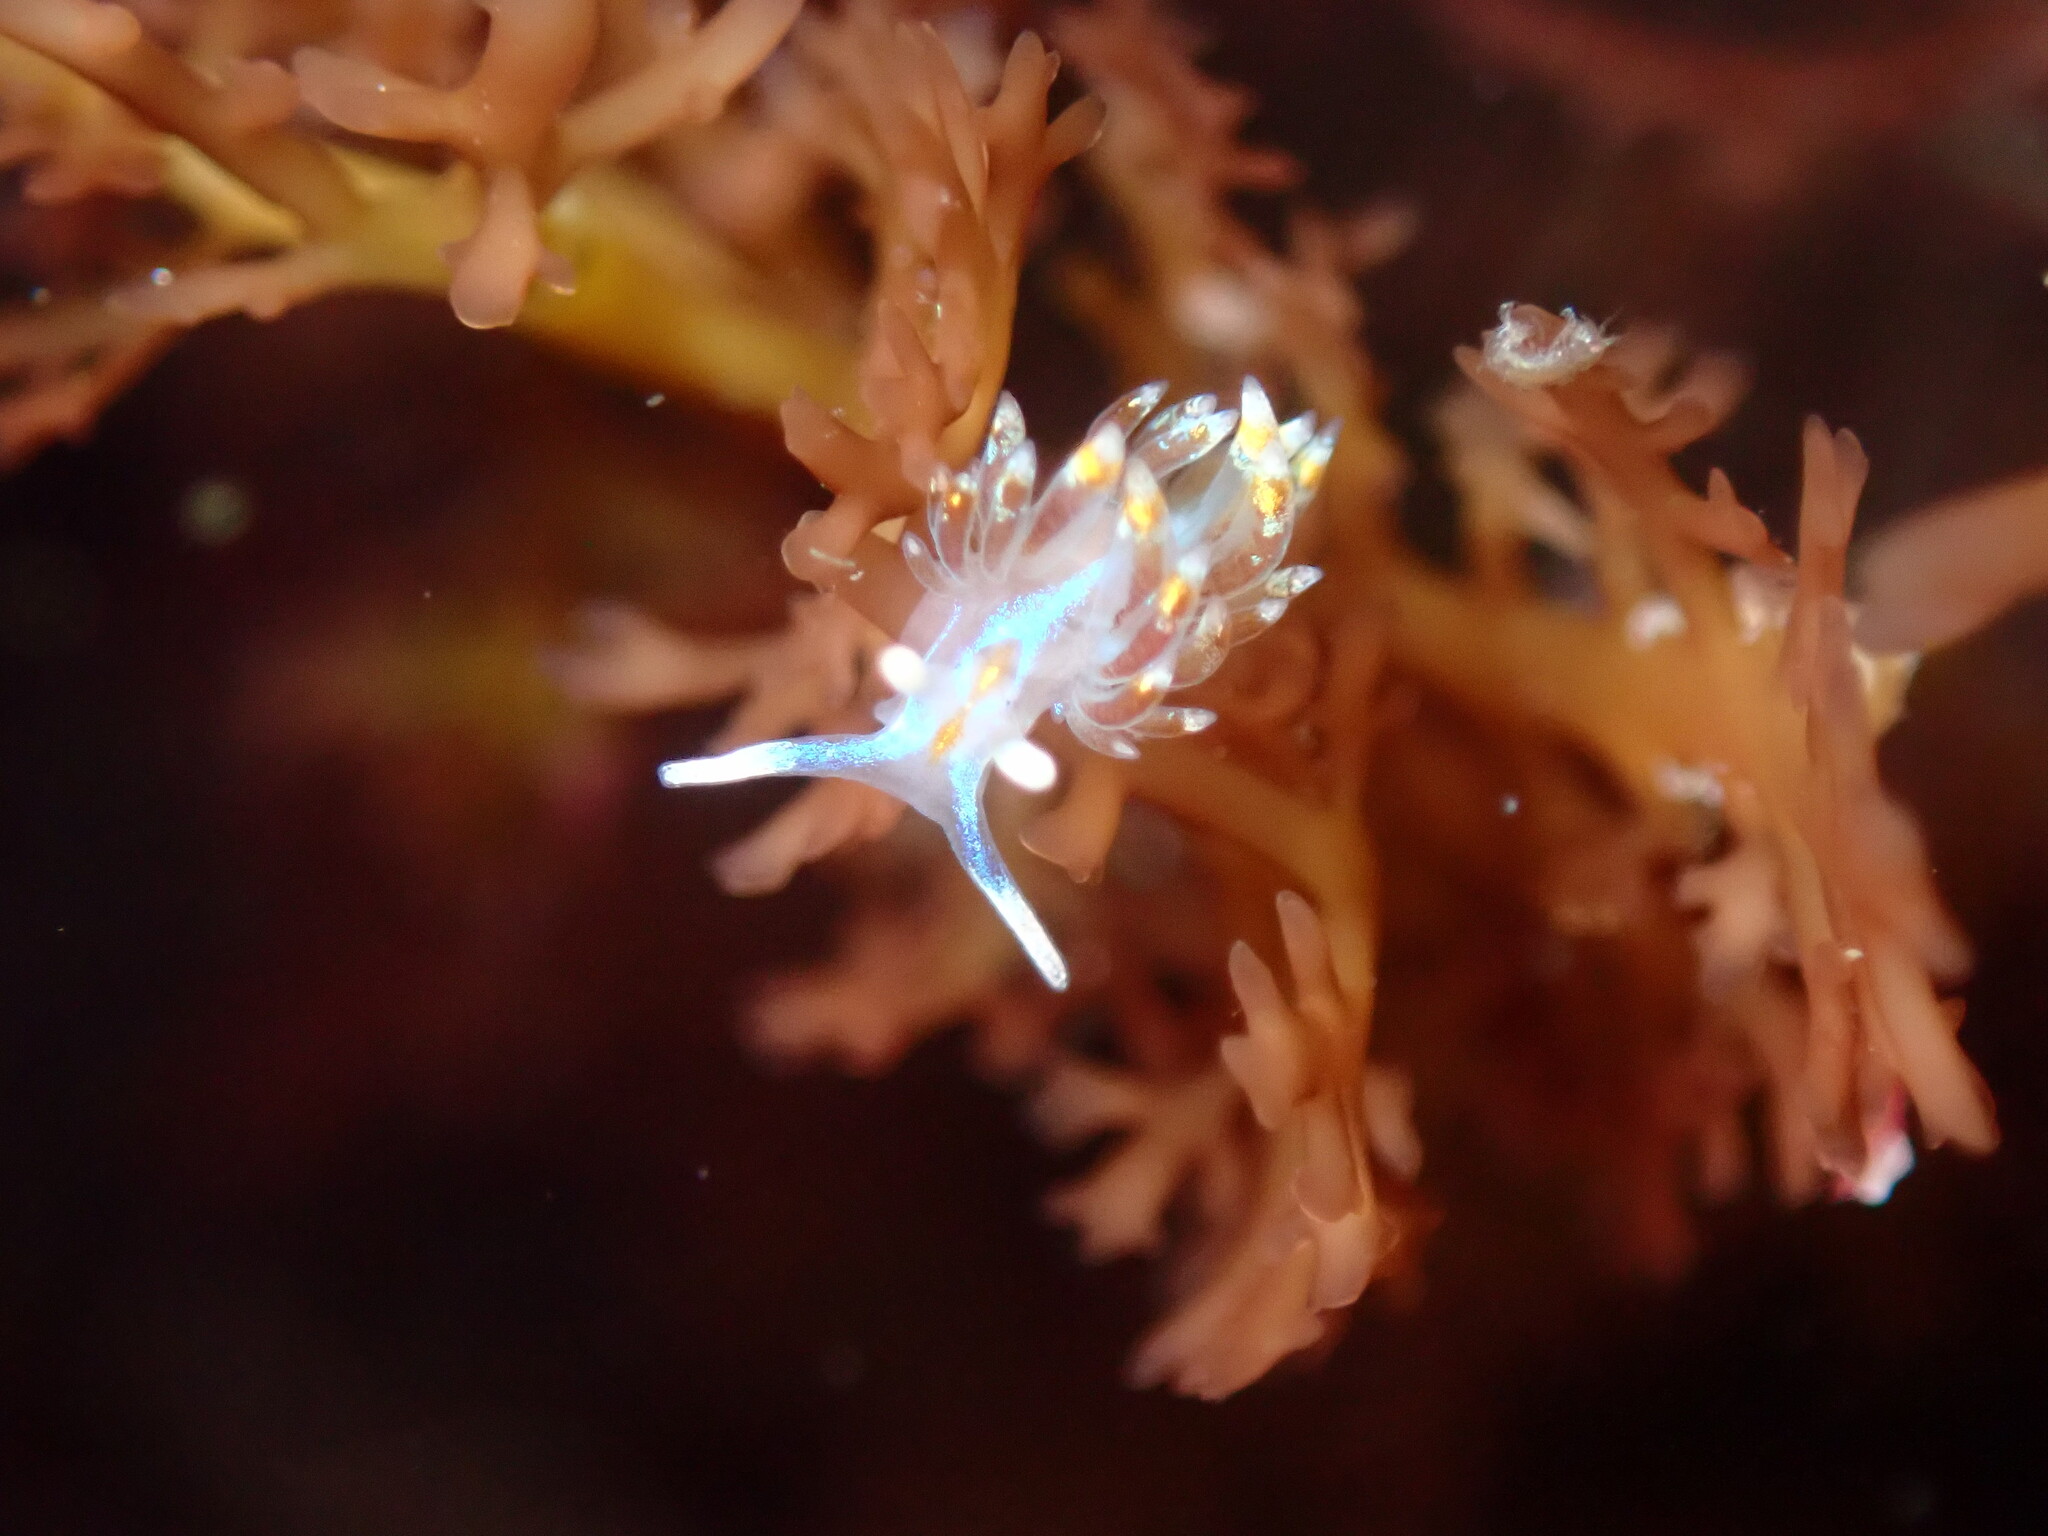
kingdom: Animalia
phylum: Mollusca
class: Gastropoda
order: Nudibranchia
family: Myrrhinidae
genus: Hermissenda
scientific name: Hermissenda opalescens
